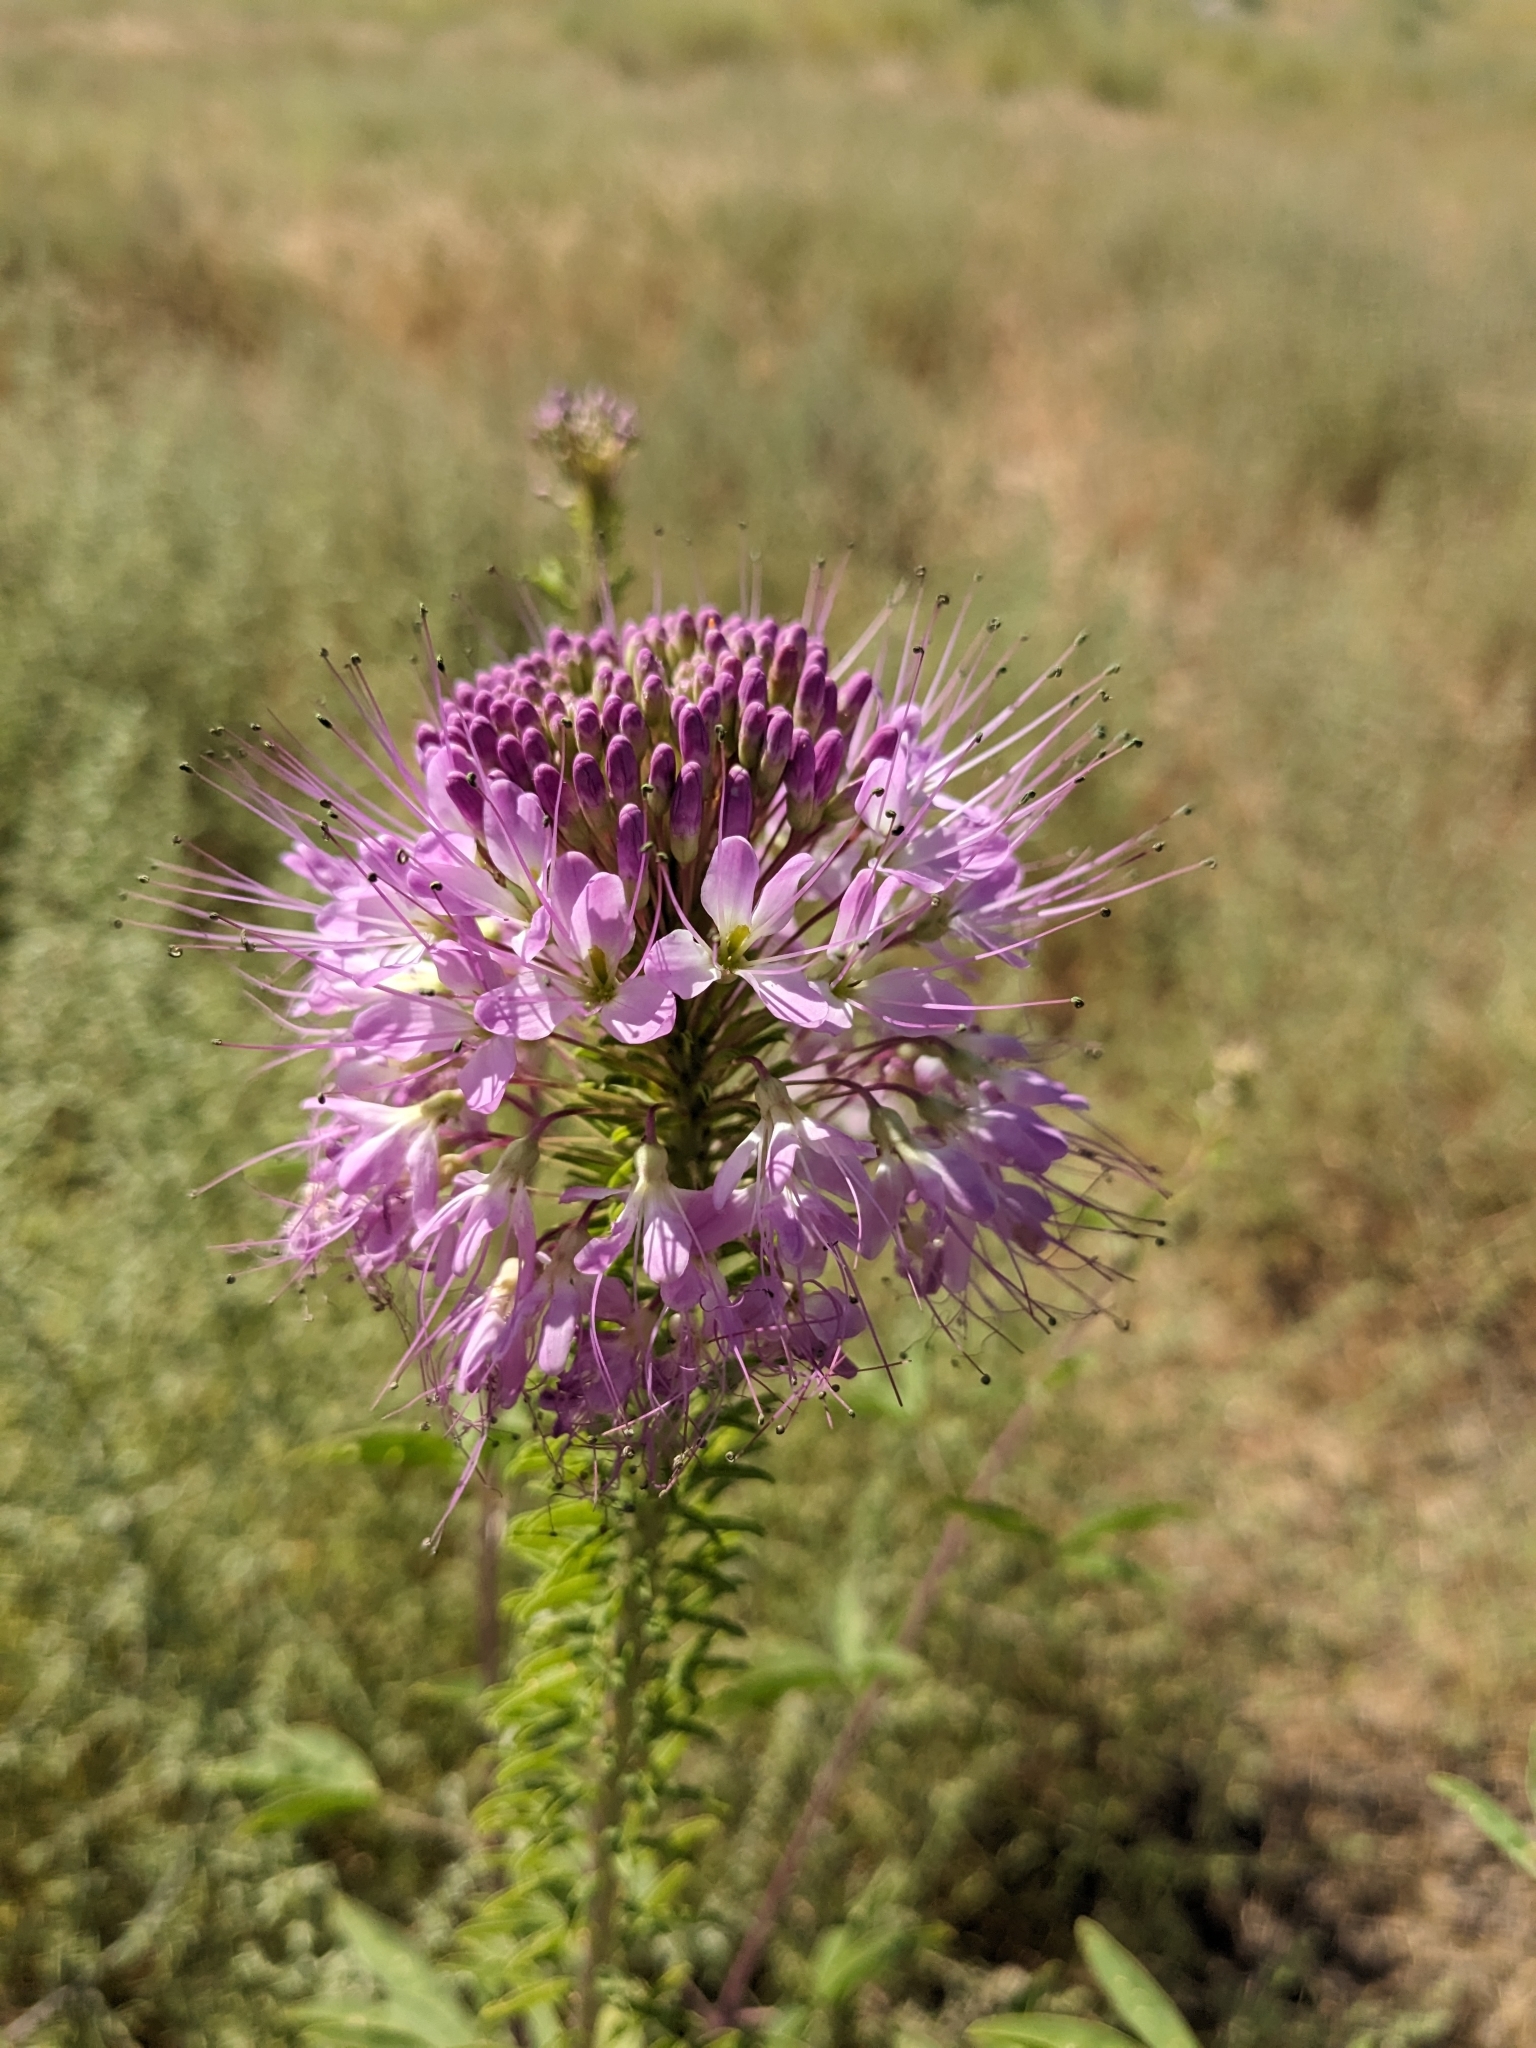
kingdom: Plantae
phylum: Tracheophyta
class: Magnoliopsida
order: Brassicales
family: Cleomaceae
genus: Cleomella
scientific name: Cleomella serrulata
